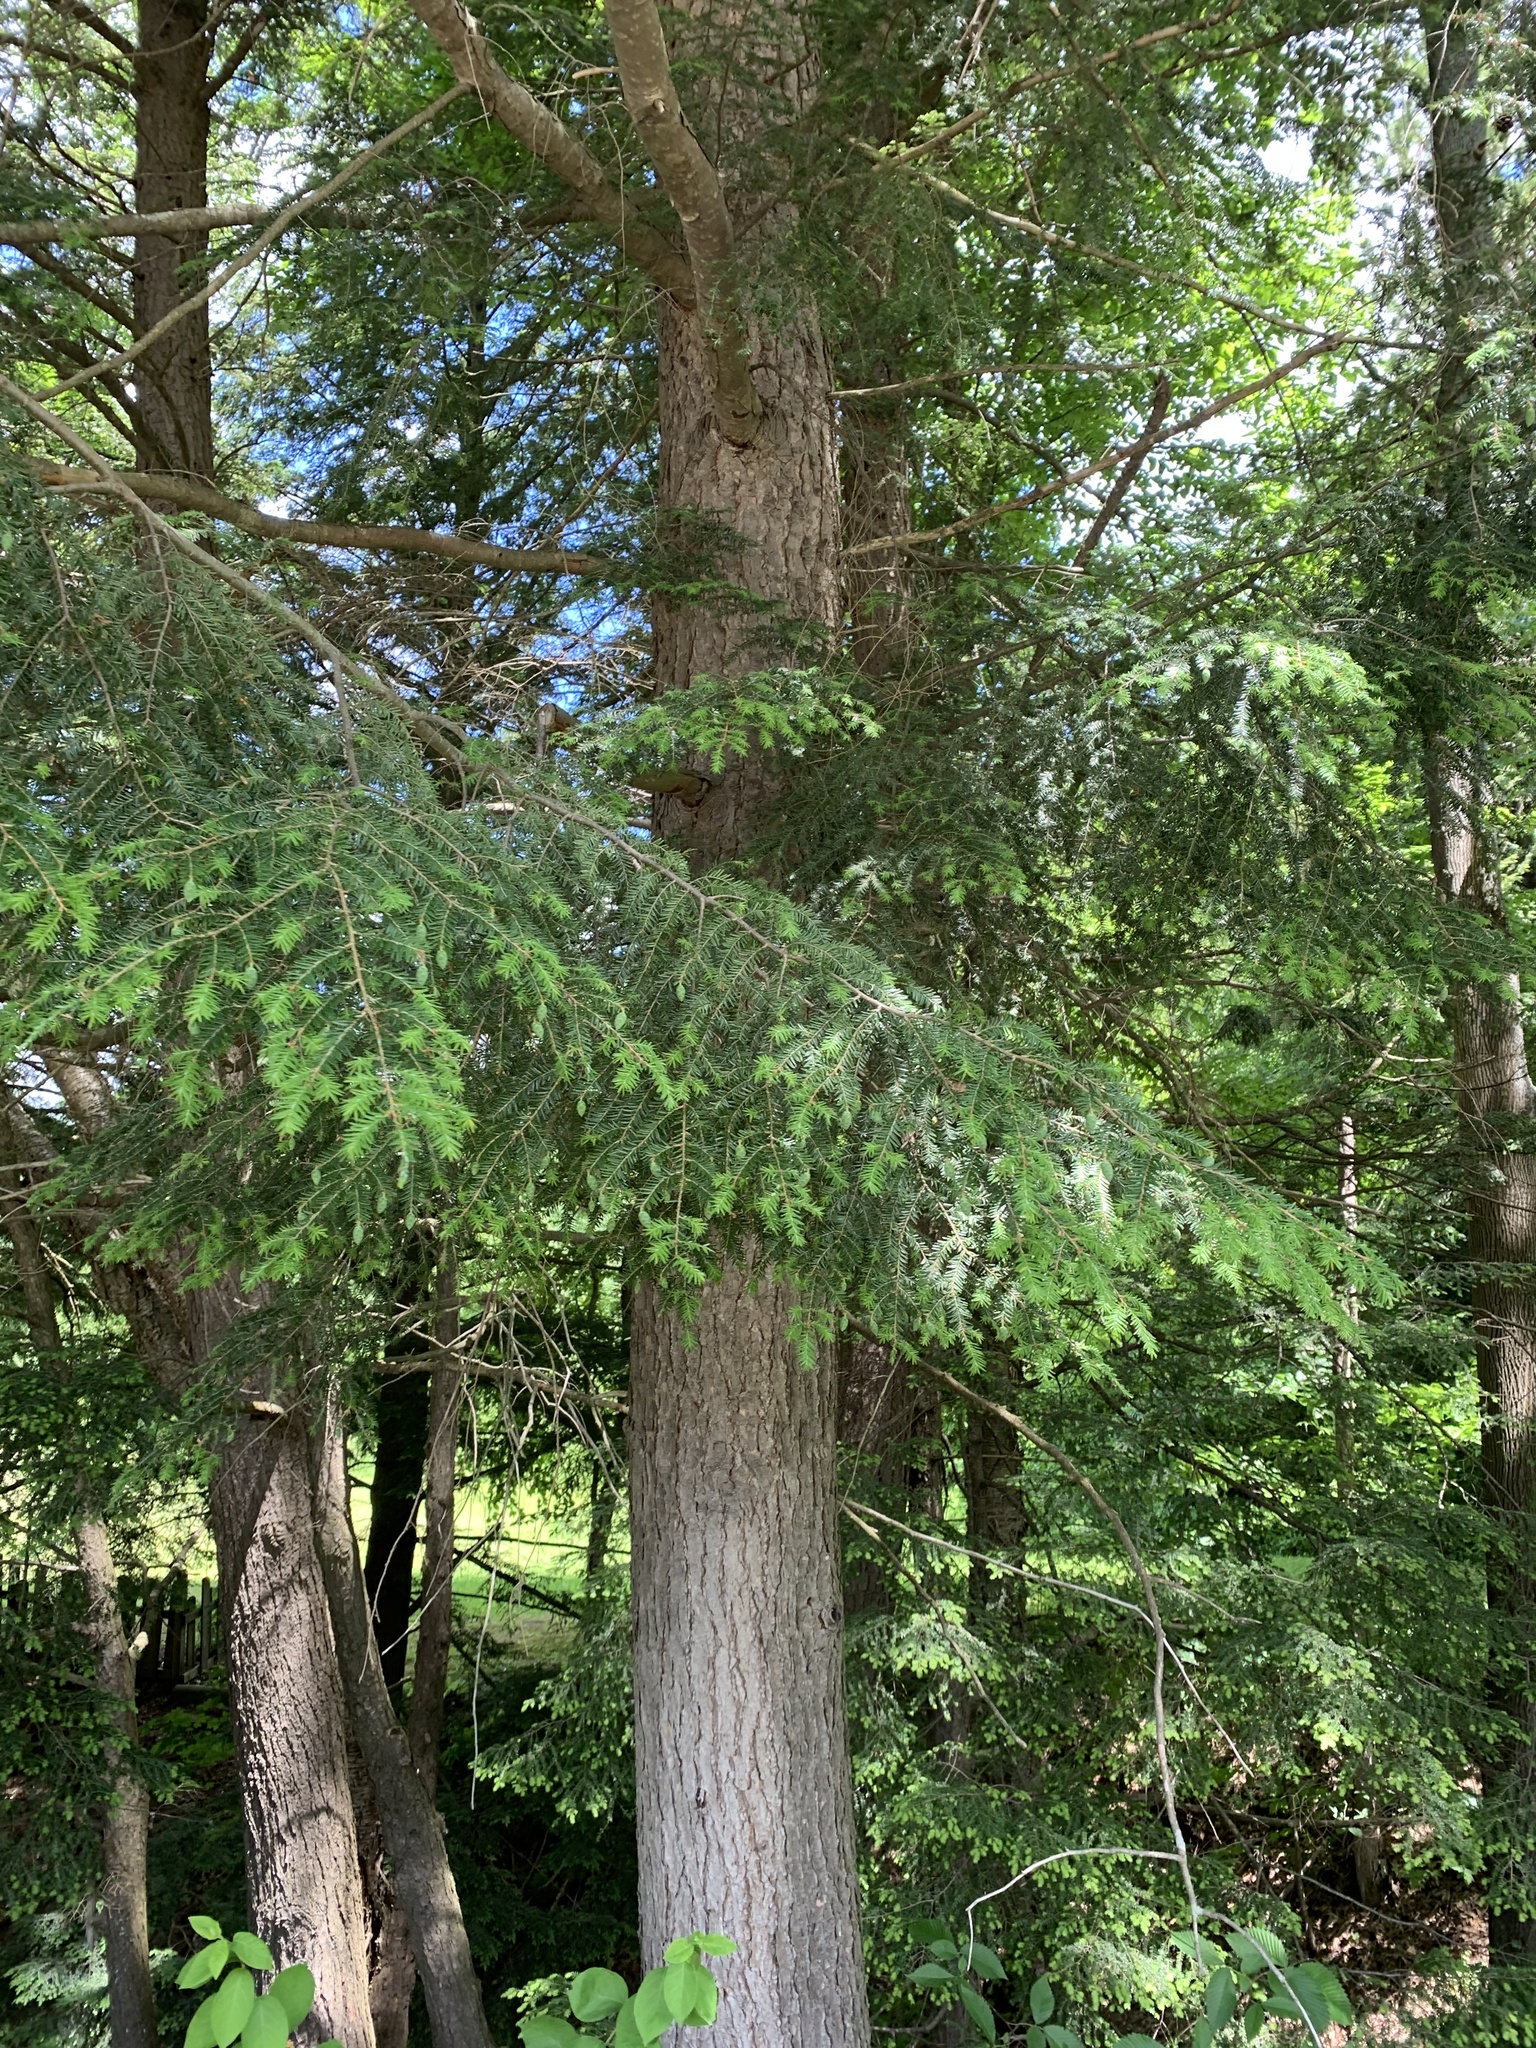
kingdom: Plantae
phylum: Tracheophyta
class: Pinopsida
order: Pinales
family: Pinaceae
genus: Tsuga
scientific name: Tsuga canadensis
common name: Eastern hemlock
